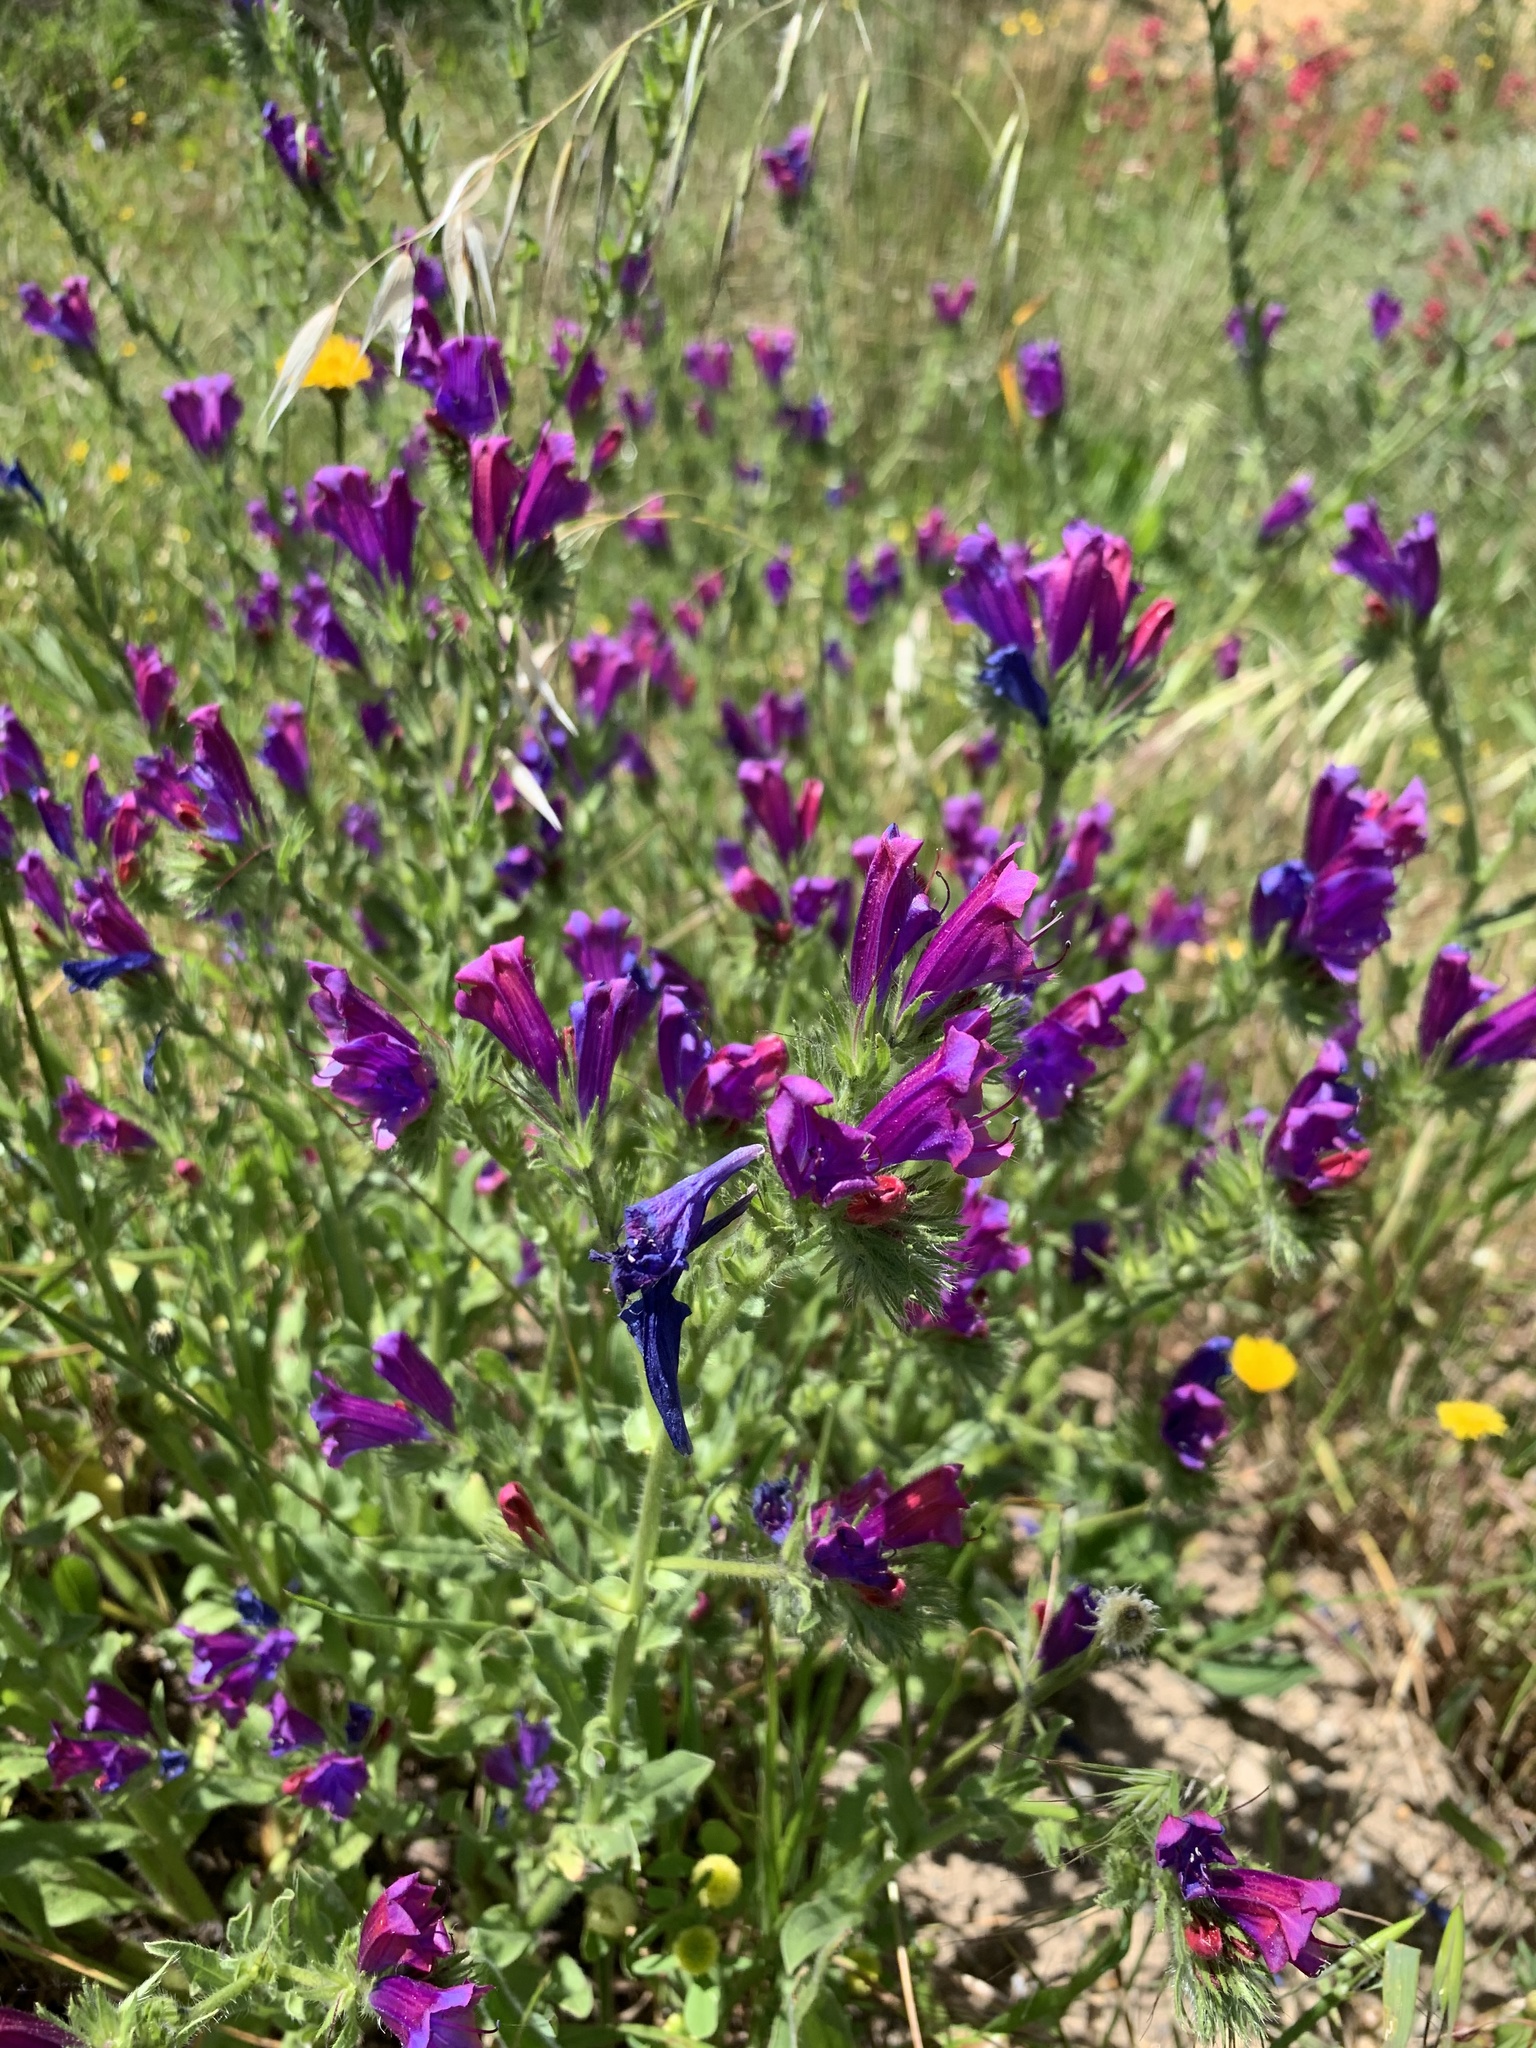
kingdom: Plantae
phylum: Tracheophyta
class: Magnoliopsida
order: Boraginales
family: Boraginaceae
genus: Echium
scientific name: Echium plantagineum
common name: Purple viper's-bugloss
